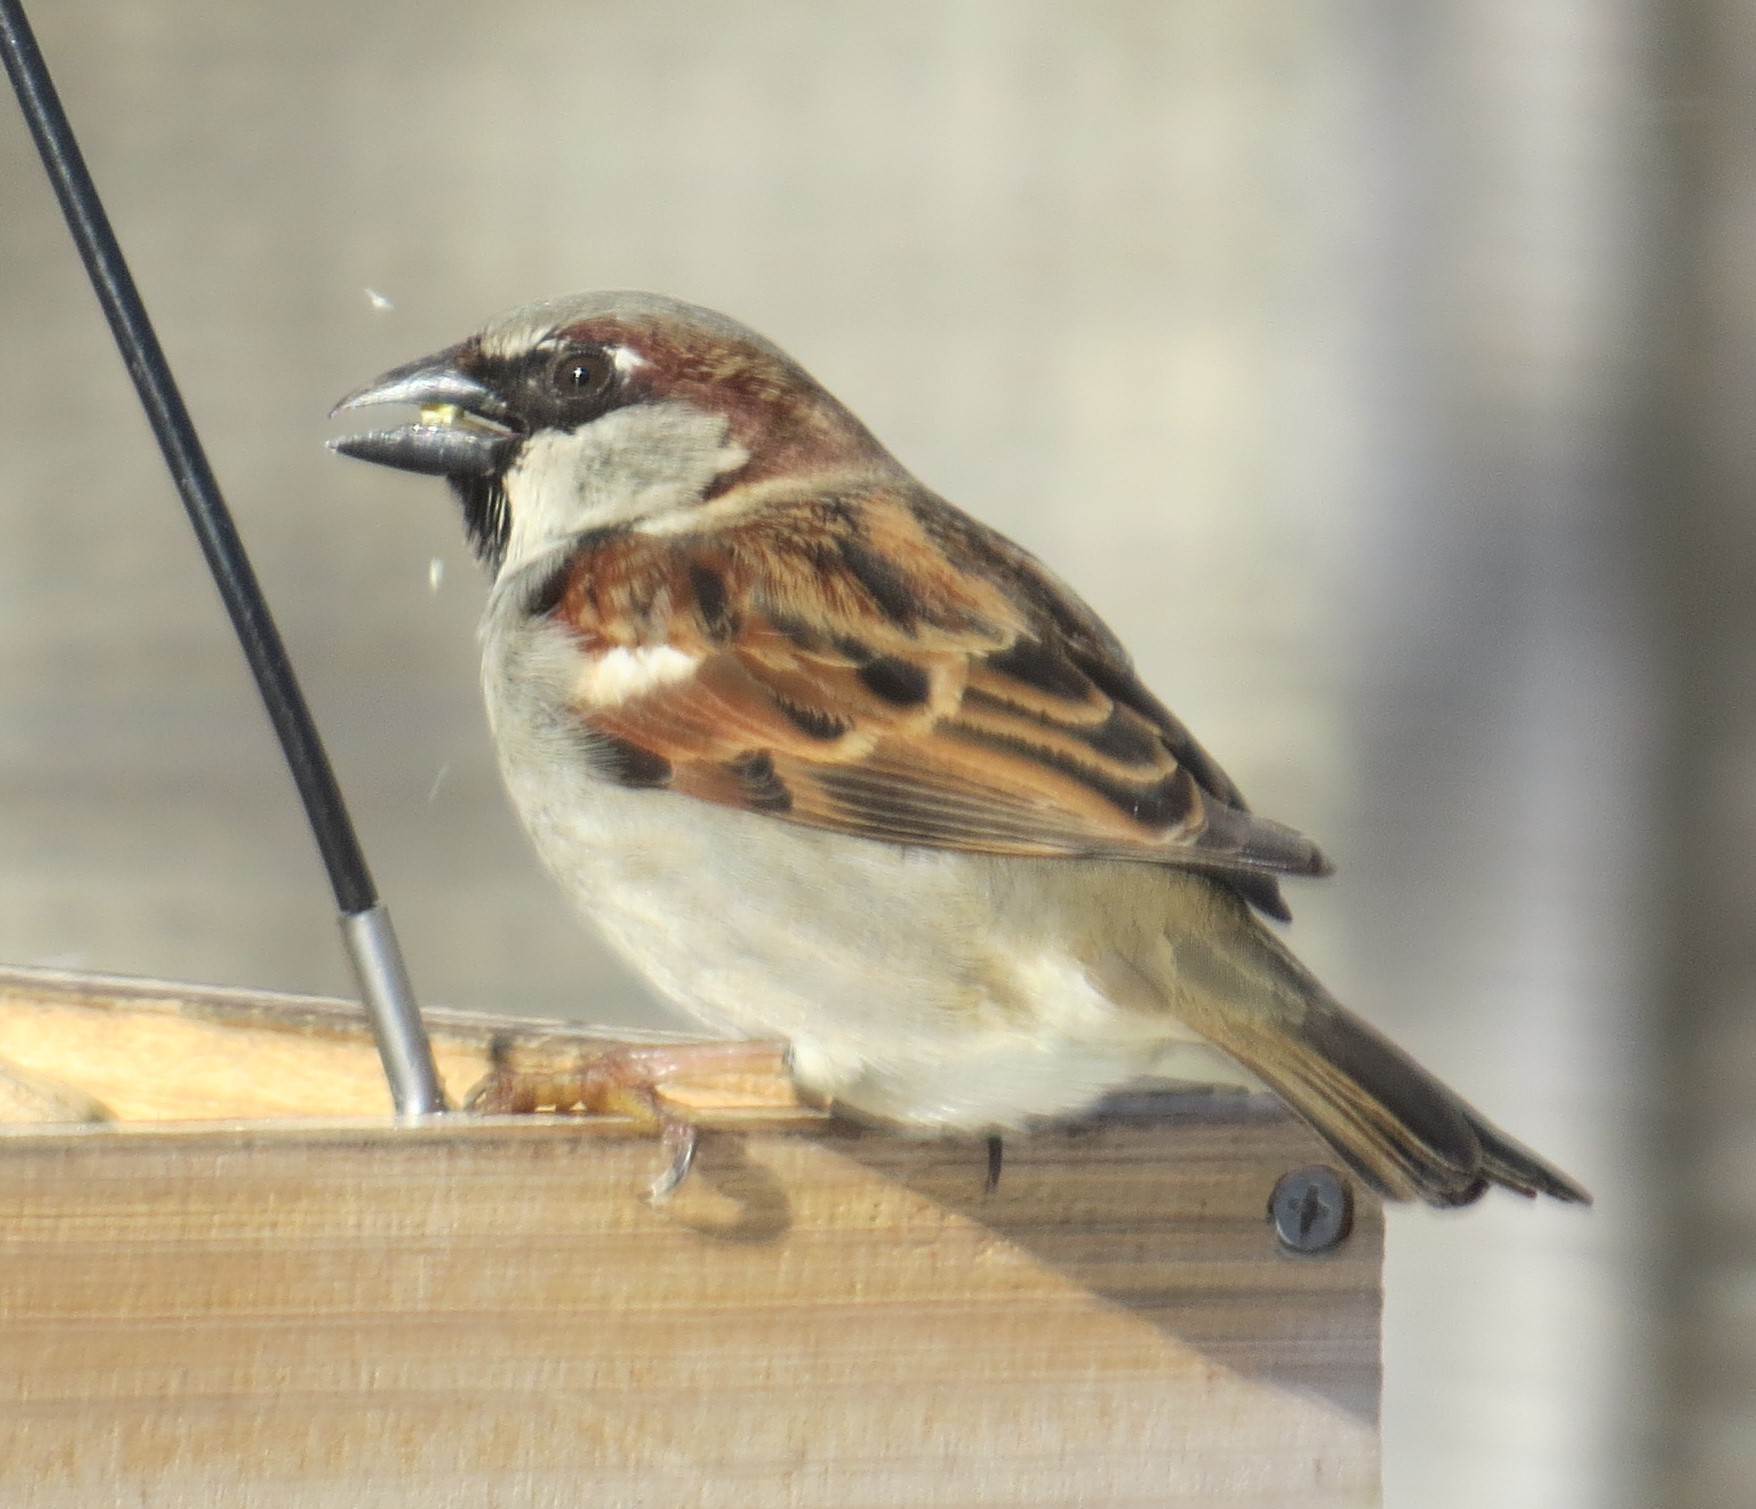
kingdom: Animalia
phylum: Chordata
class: Aves
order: Passeriformes
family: Passeridae
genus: Passer
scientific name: Passer domesticus
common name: House sparrow
